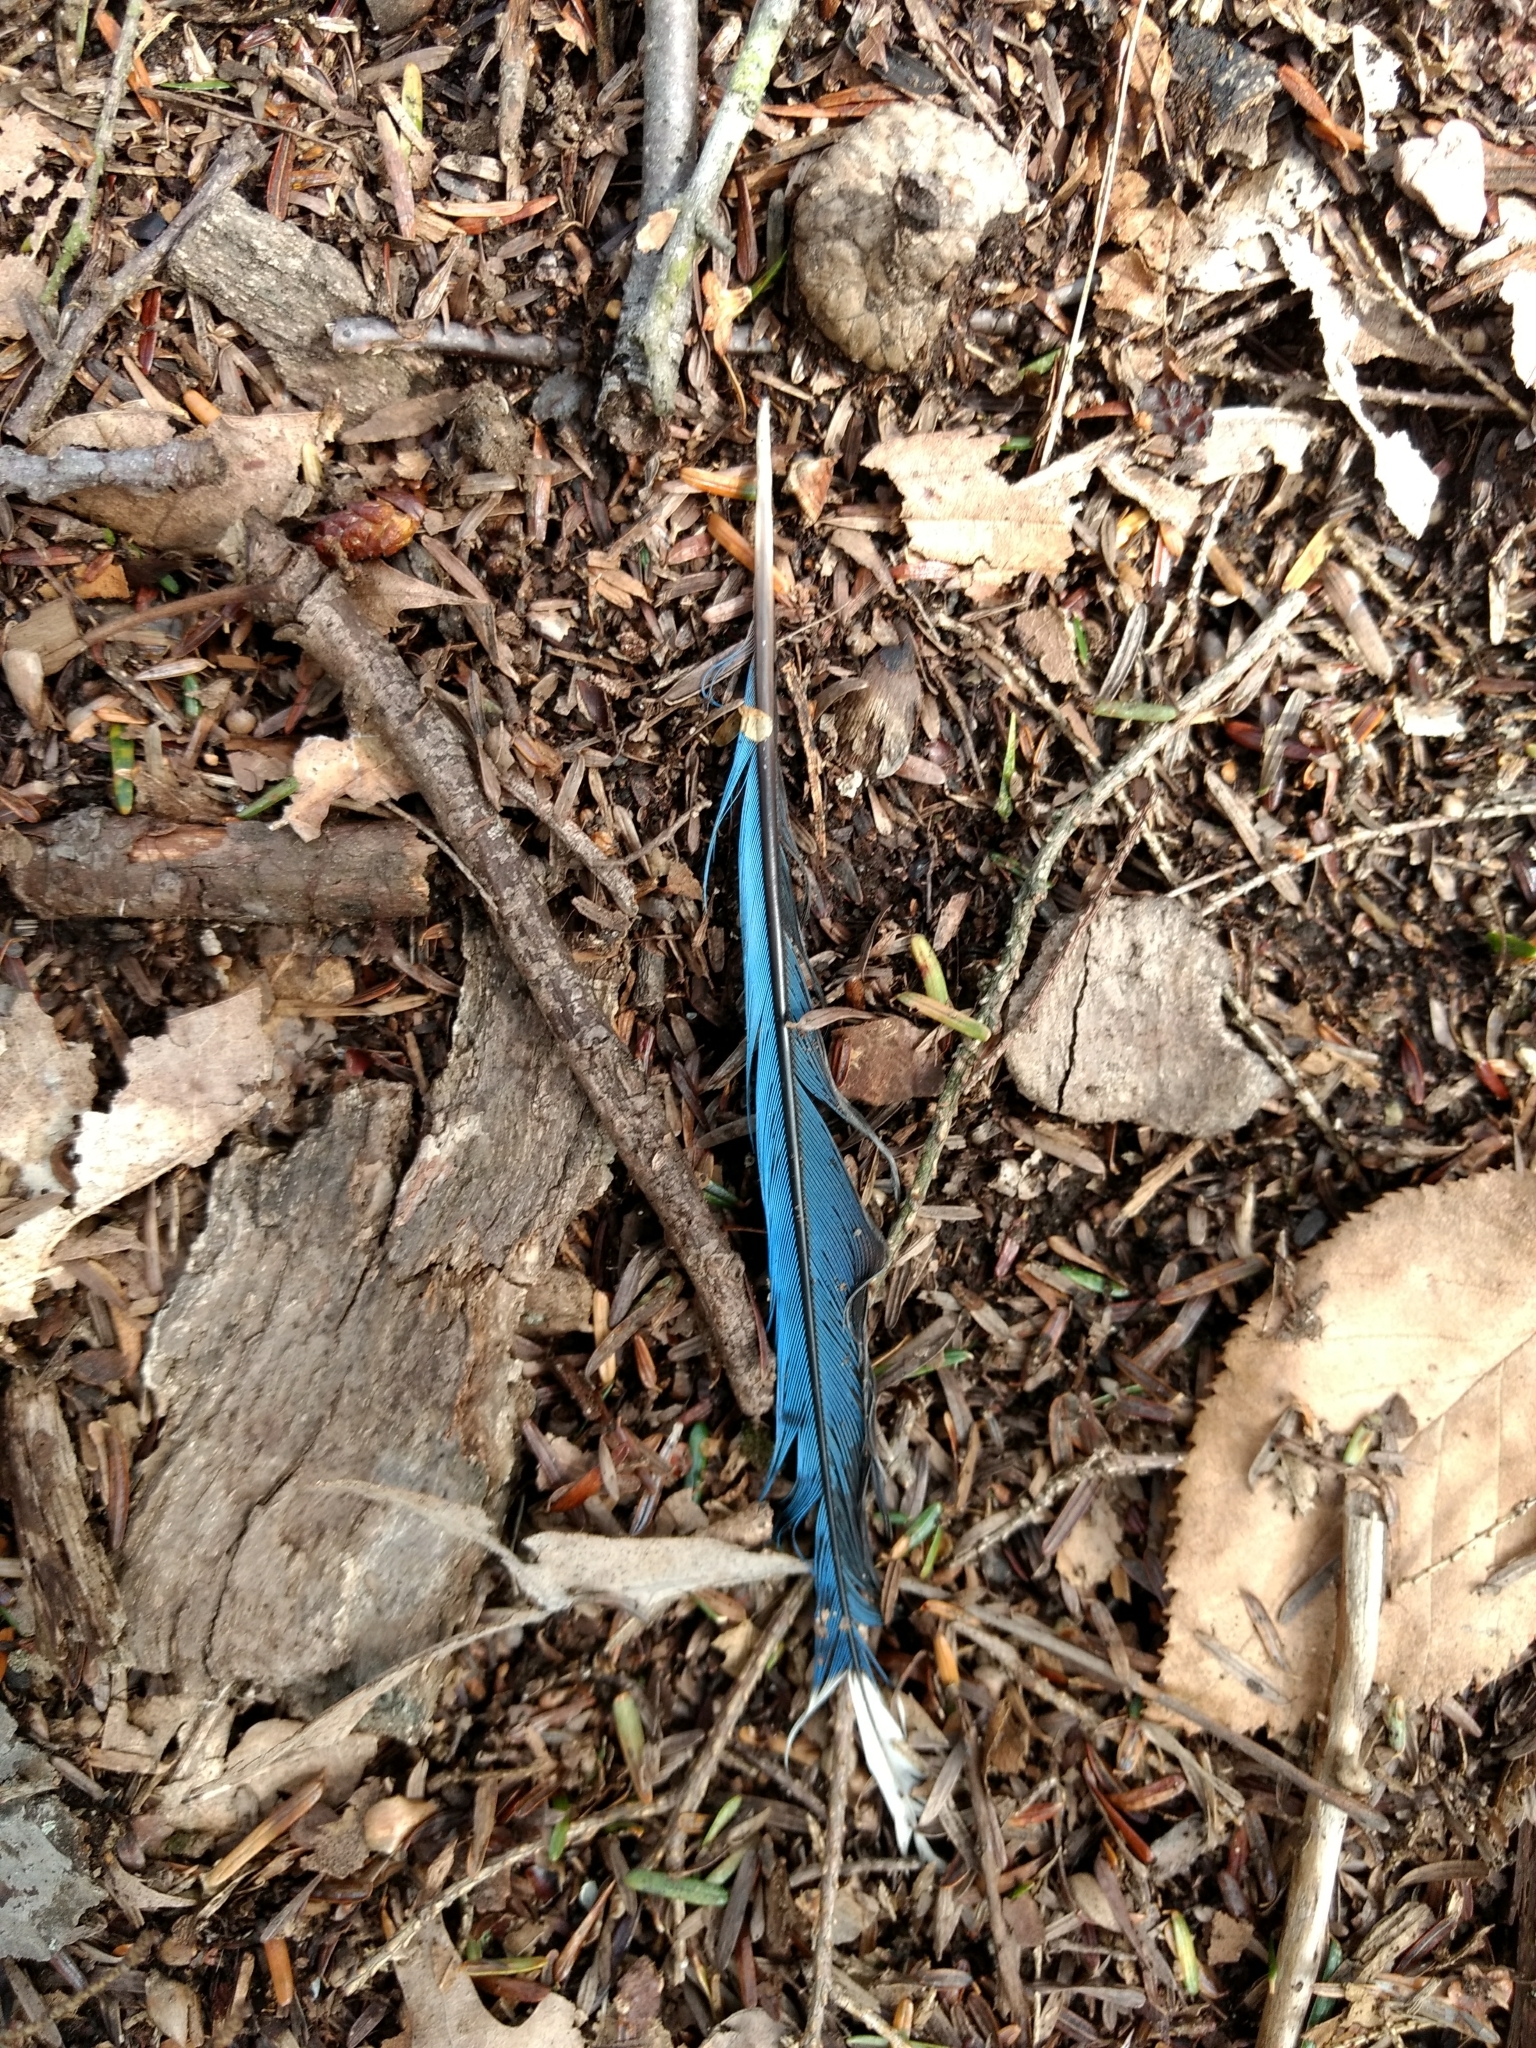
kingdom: Animalia
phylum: Chordata
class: Aves
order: Passeriformes
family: Corvidae
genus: Cyanocitta
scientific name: Cyanocitta cristata
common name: Blue jay
